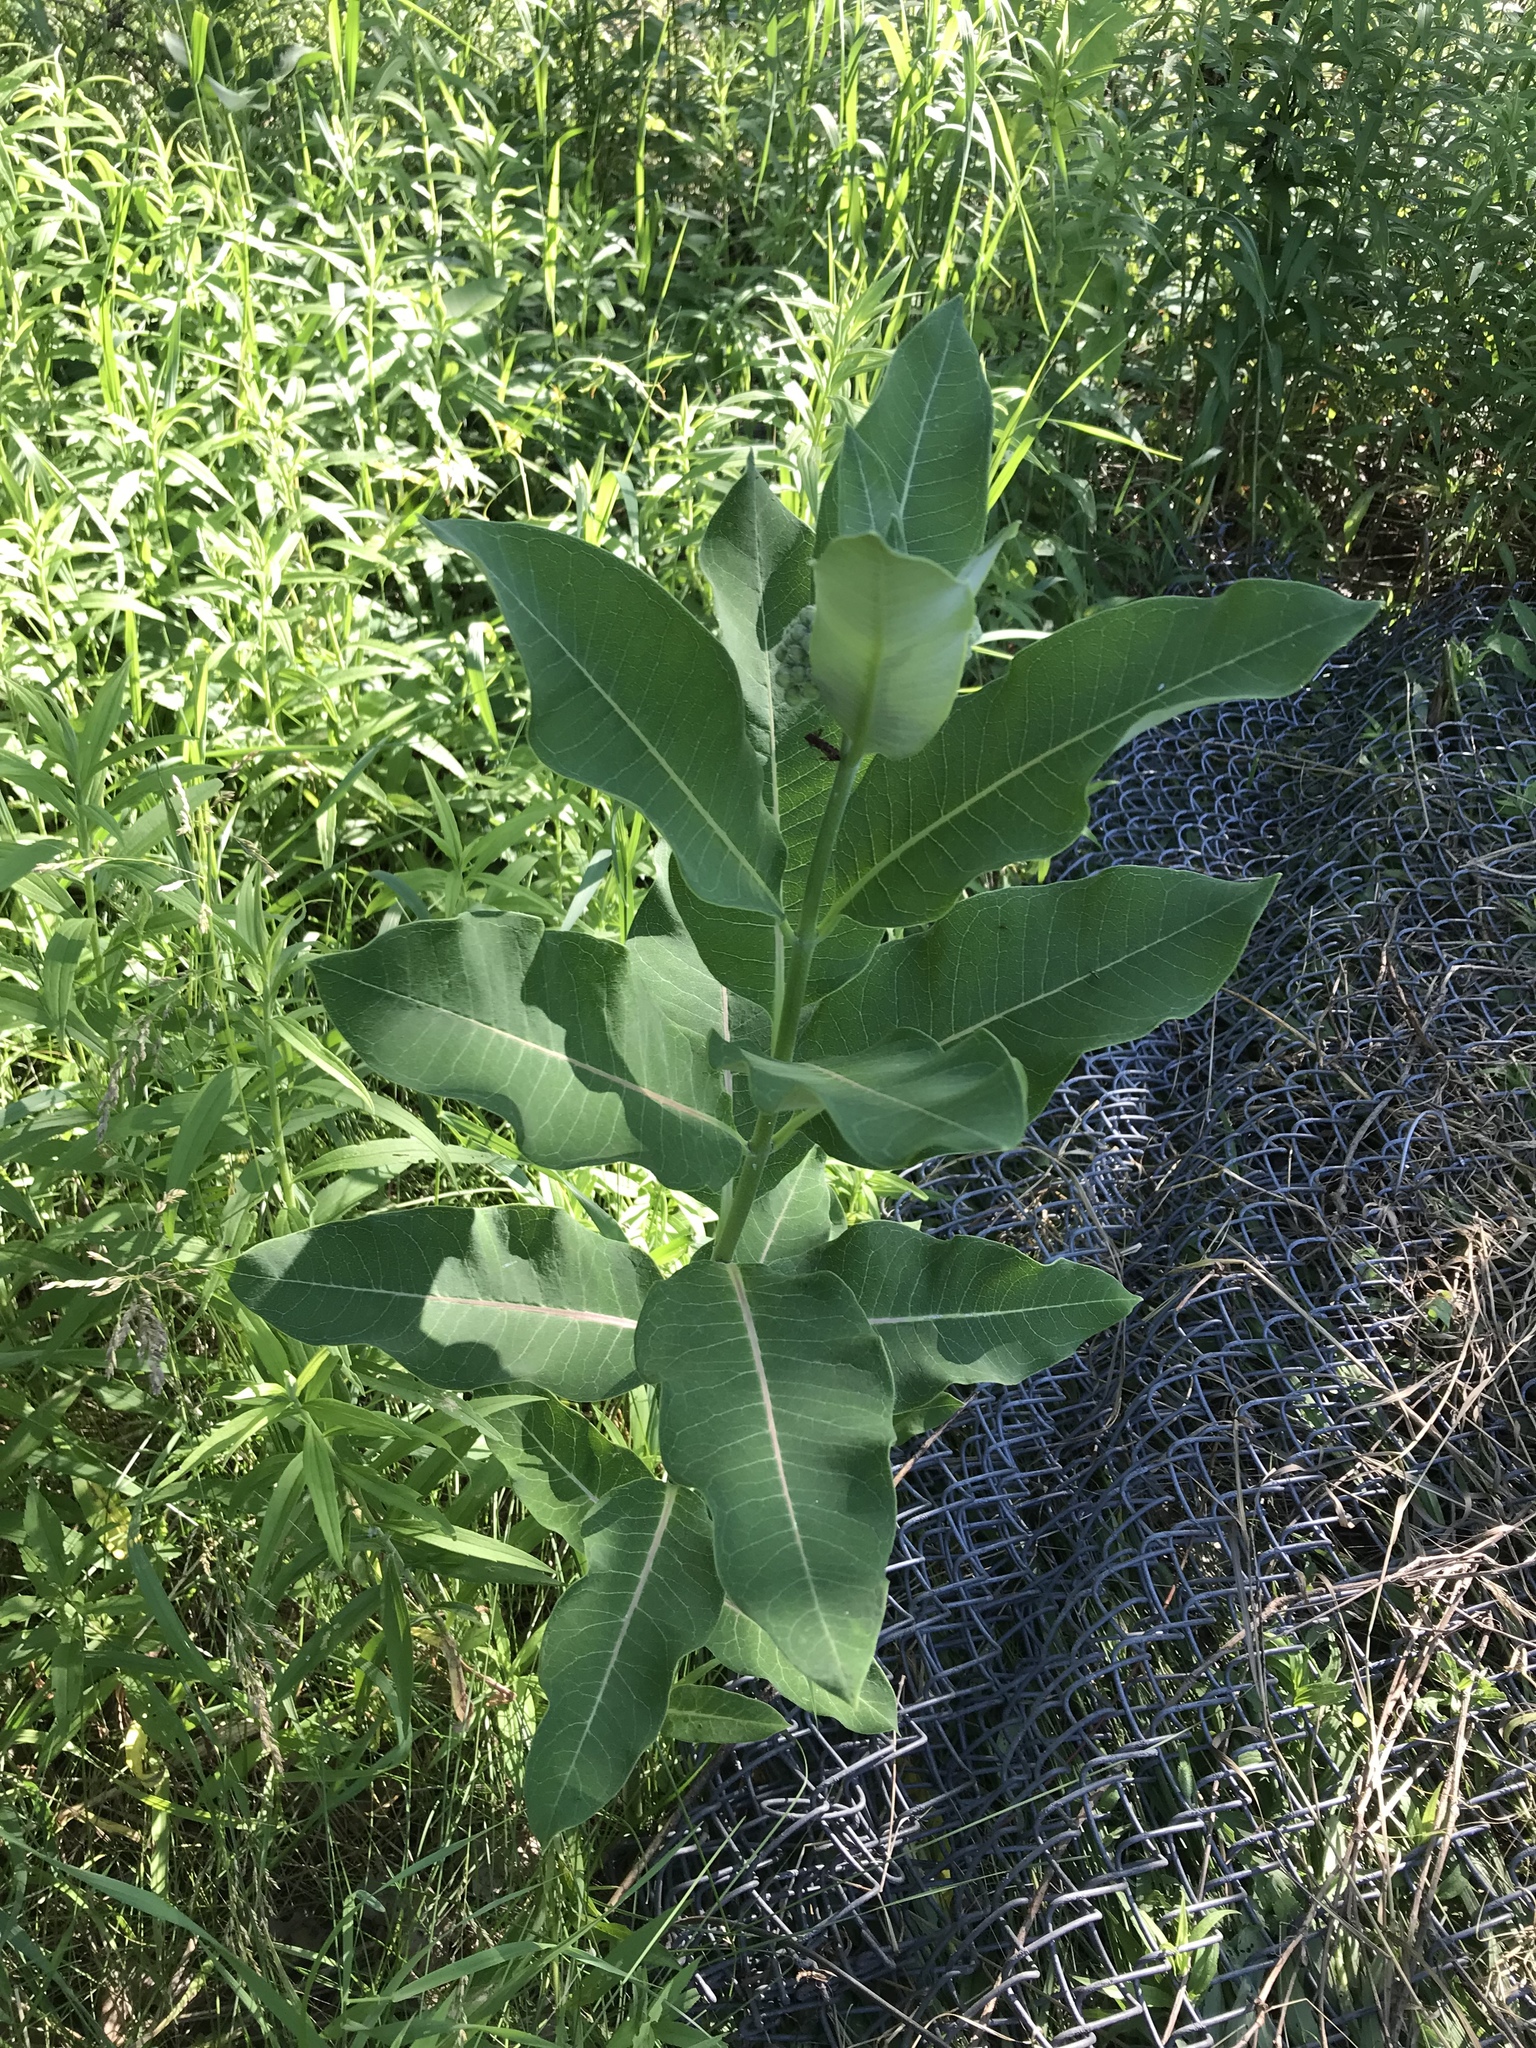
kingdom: Plantae
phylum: Tracheophyta
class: Magnoliopsida
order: Gentianales
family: Apocynaceae
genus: Asclepias
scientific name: Asclepias syriaca
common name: Common milkweed
